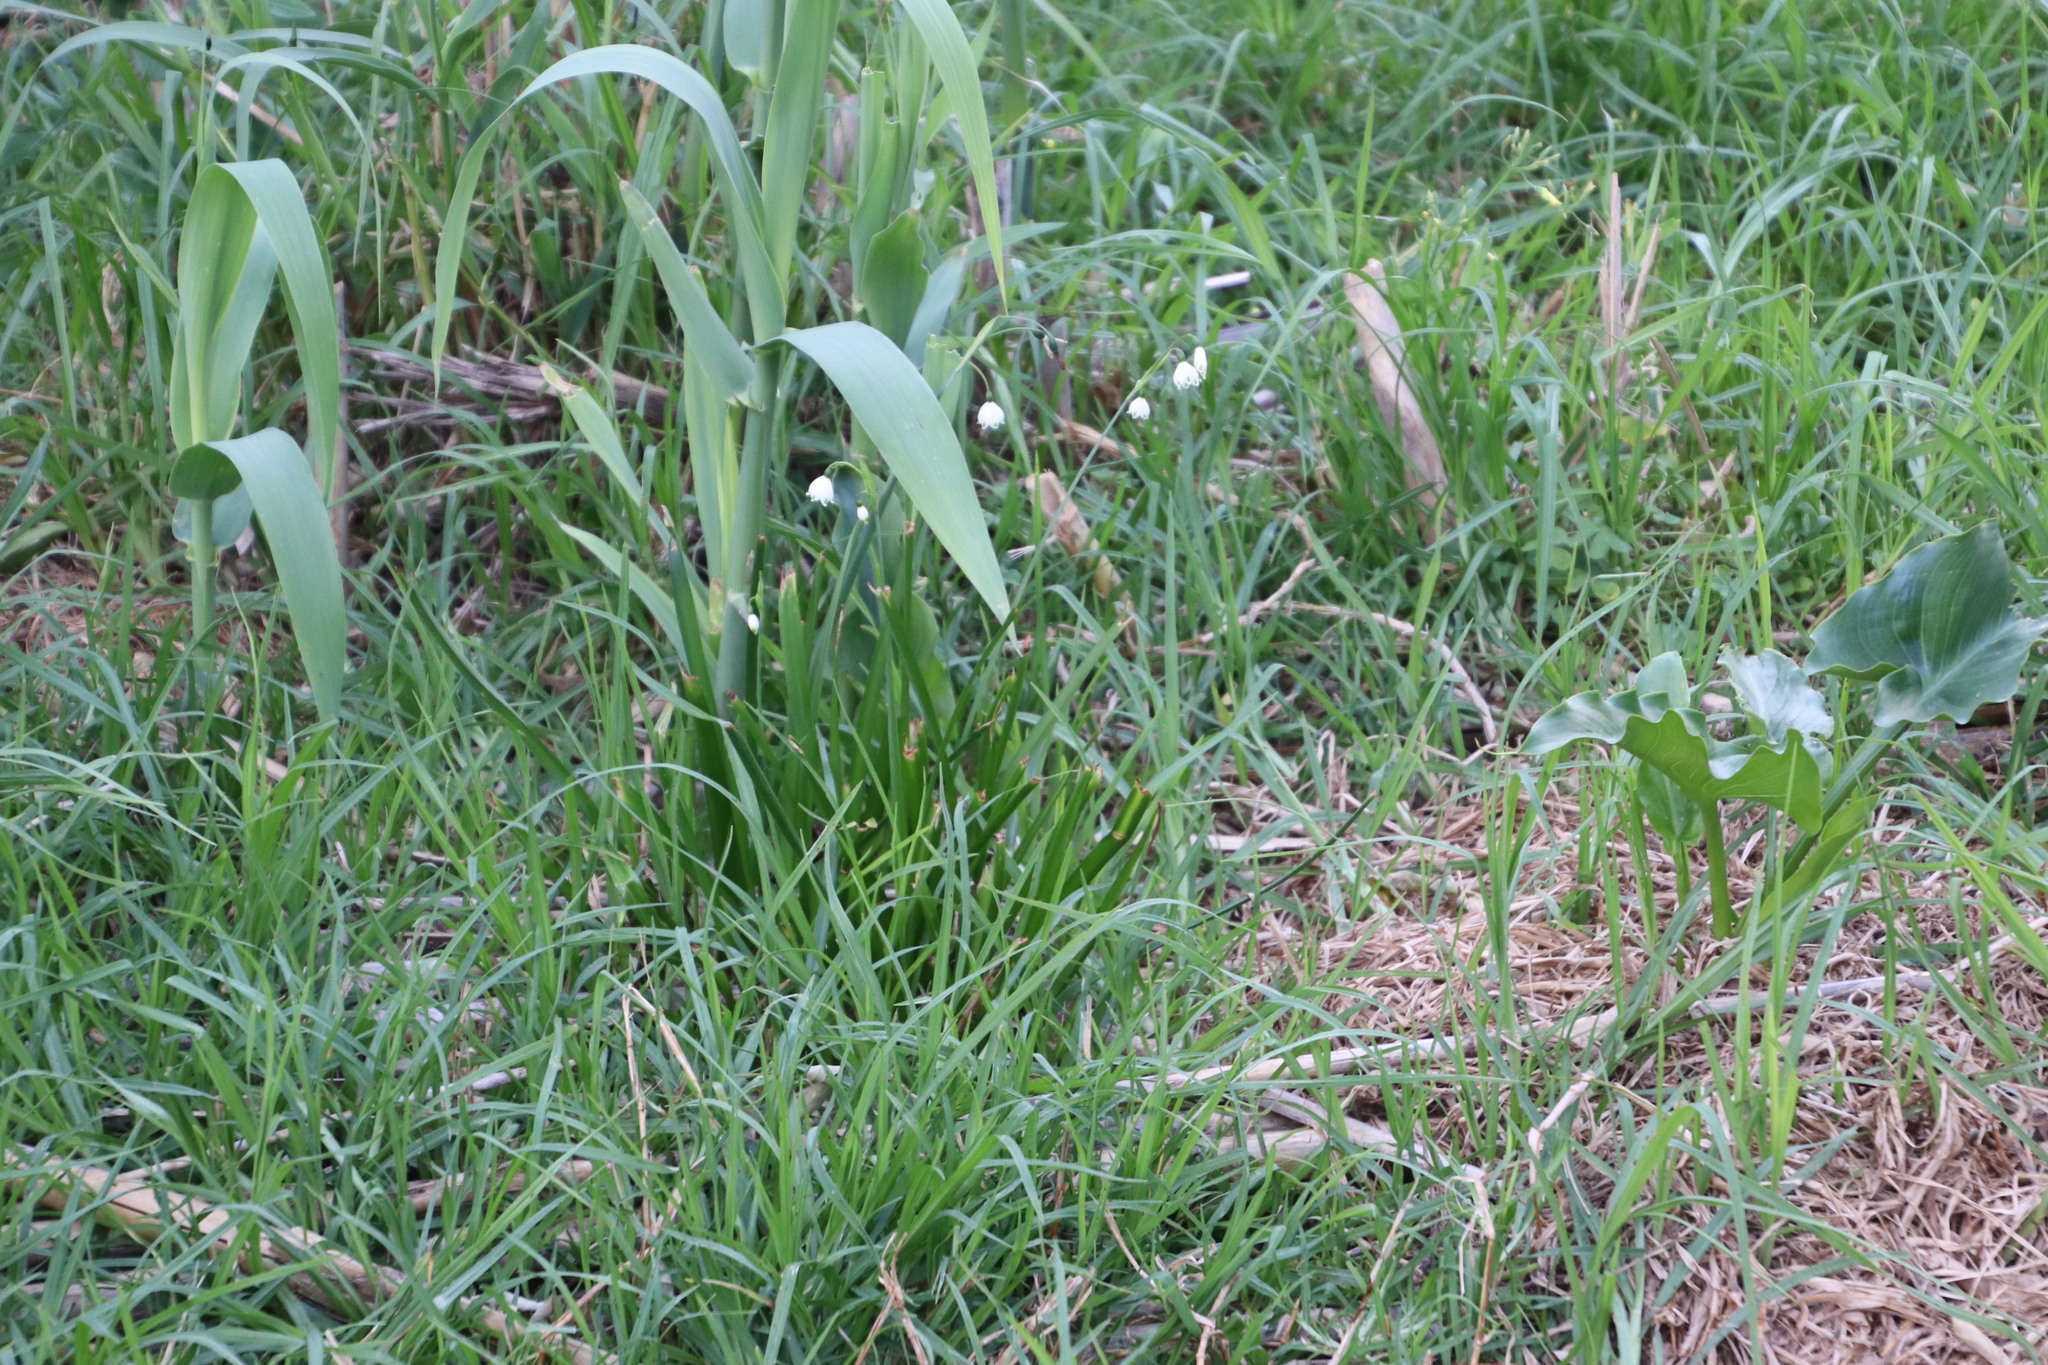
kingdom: Plantae
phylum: Tracheophyta
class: Liliopsida
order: Asparagales
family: Amaryllidaceae
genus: Leucojum
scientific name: Leucojum aestivum
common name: Summer snowflake
